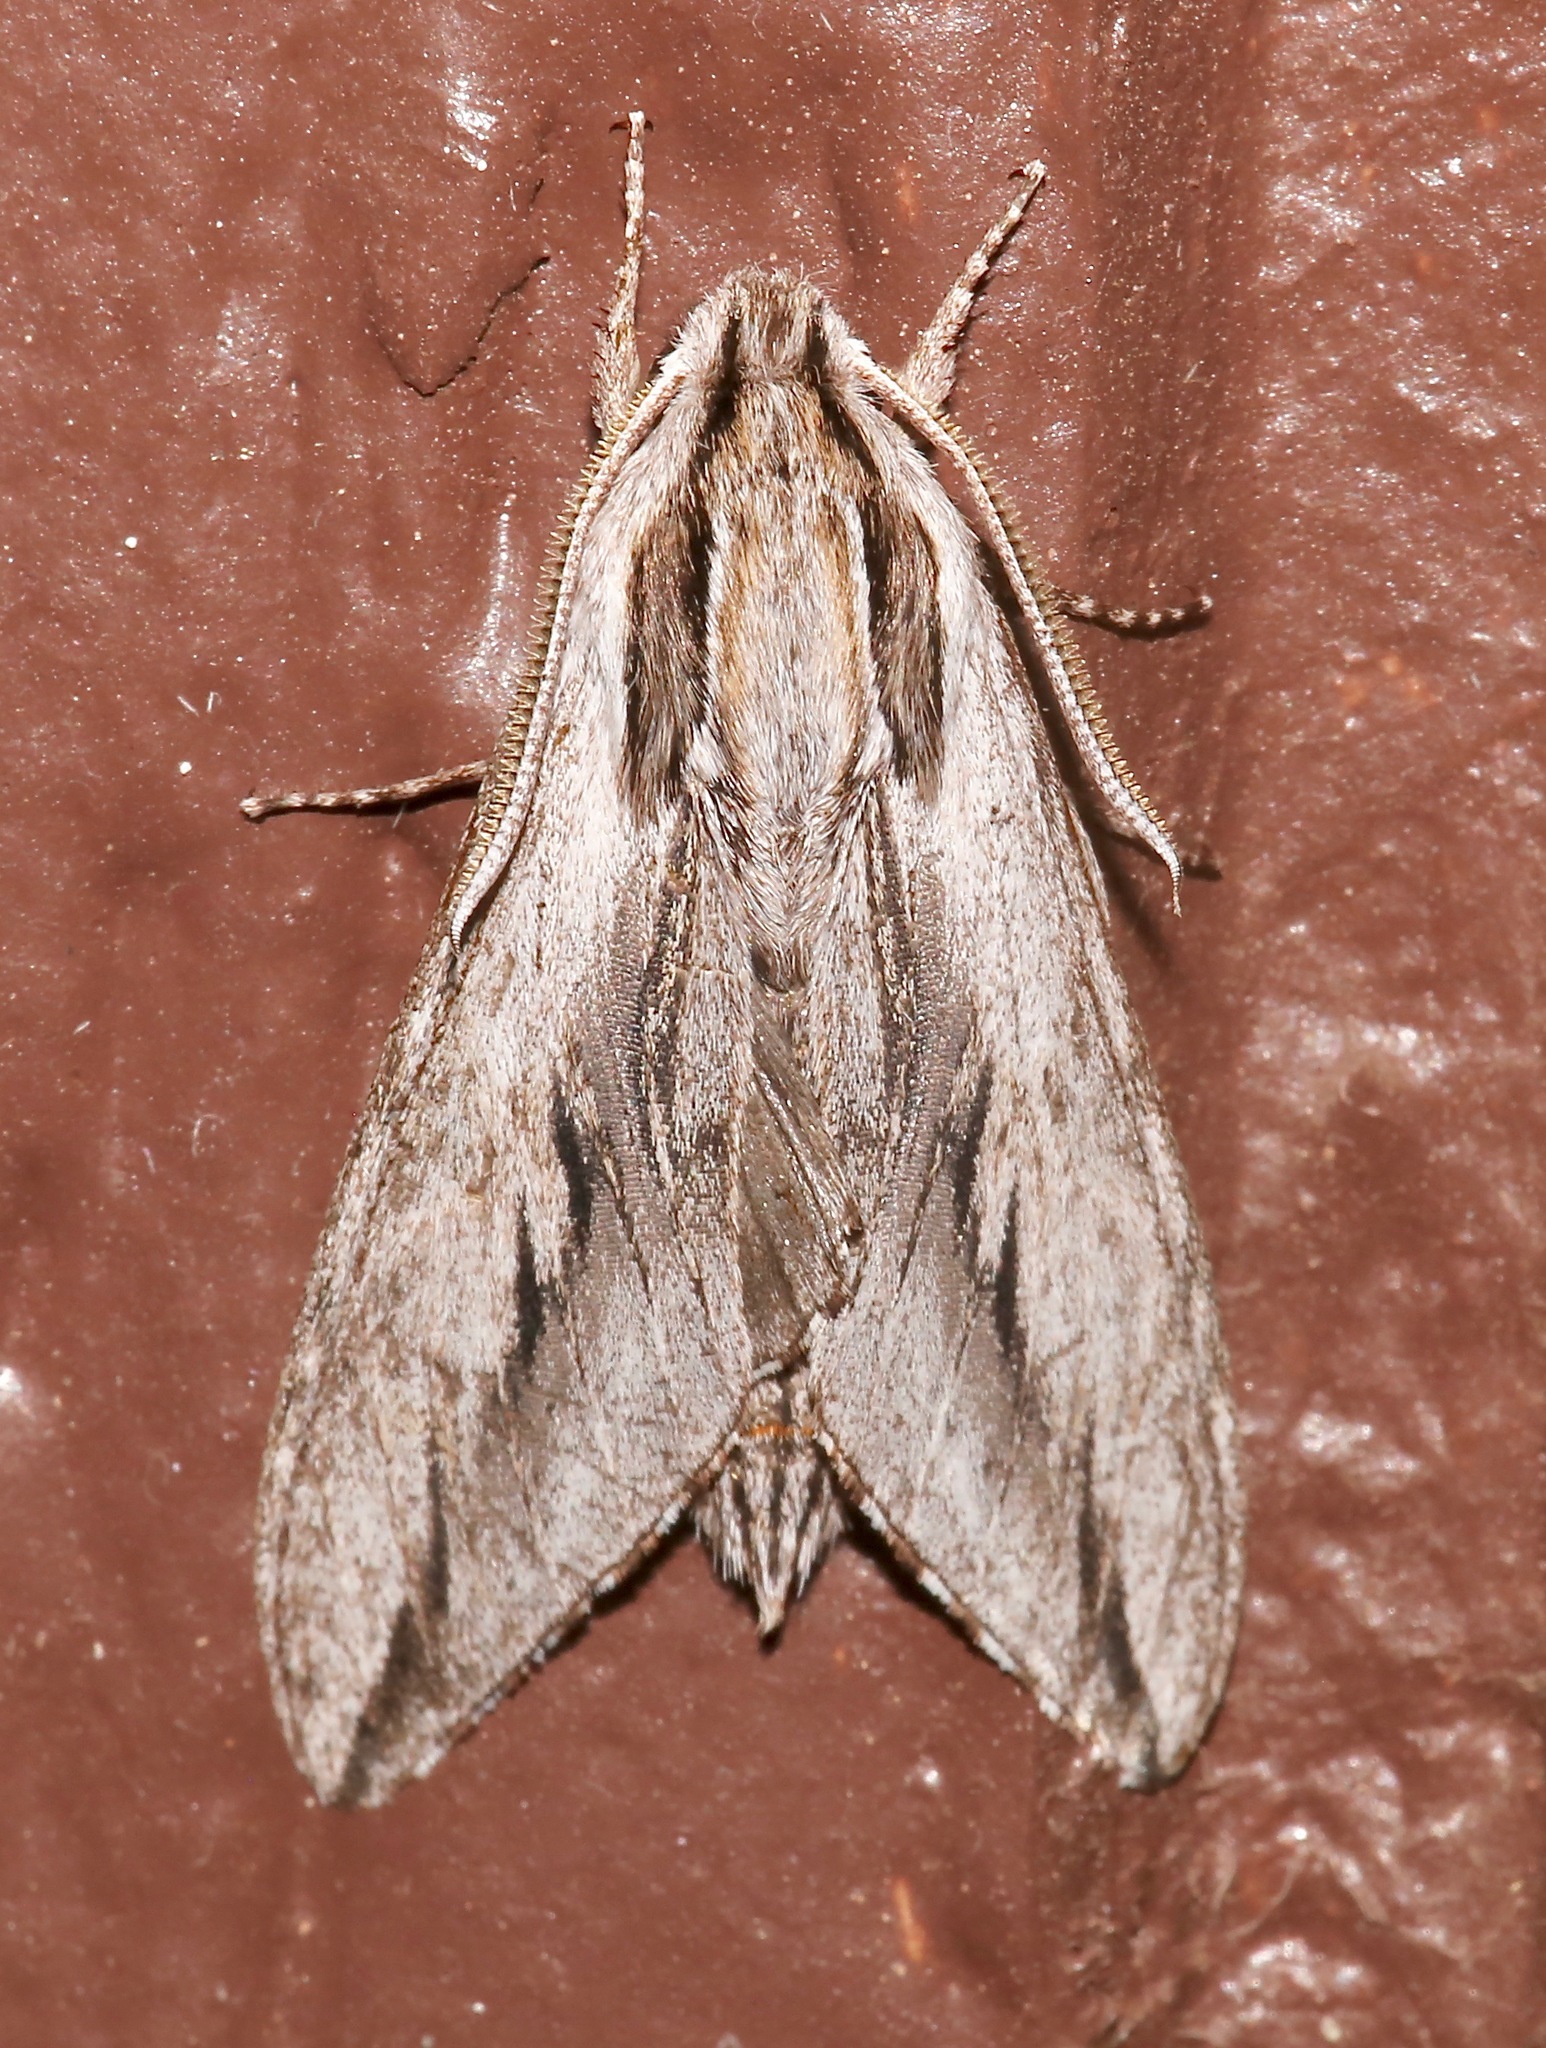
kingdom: Animalia
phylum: Arthropoda
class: Insecta
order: Lepidoptera
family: Sphingidae
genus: Sphinx
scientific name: Sphinx dollii
